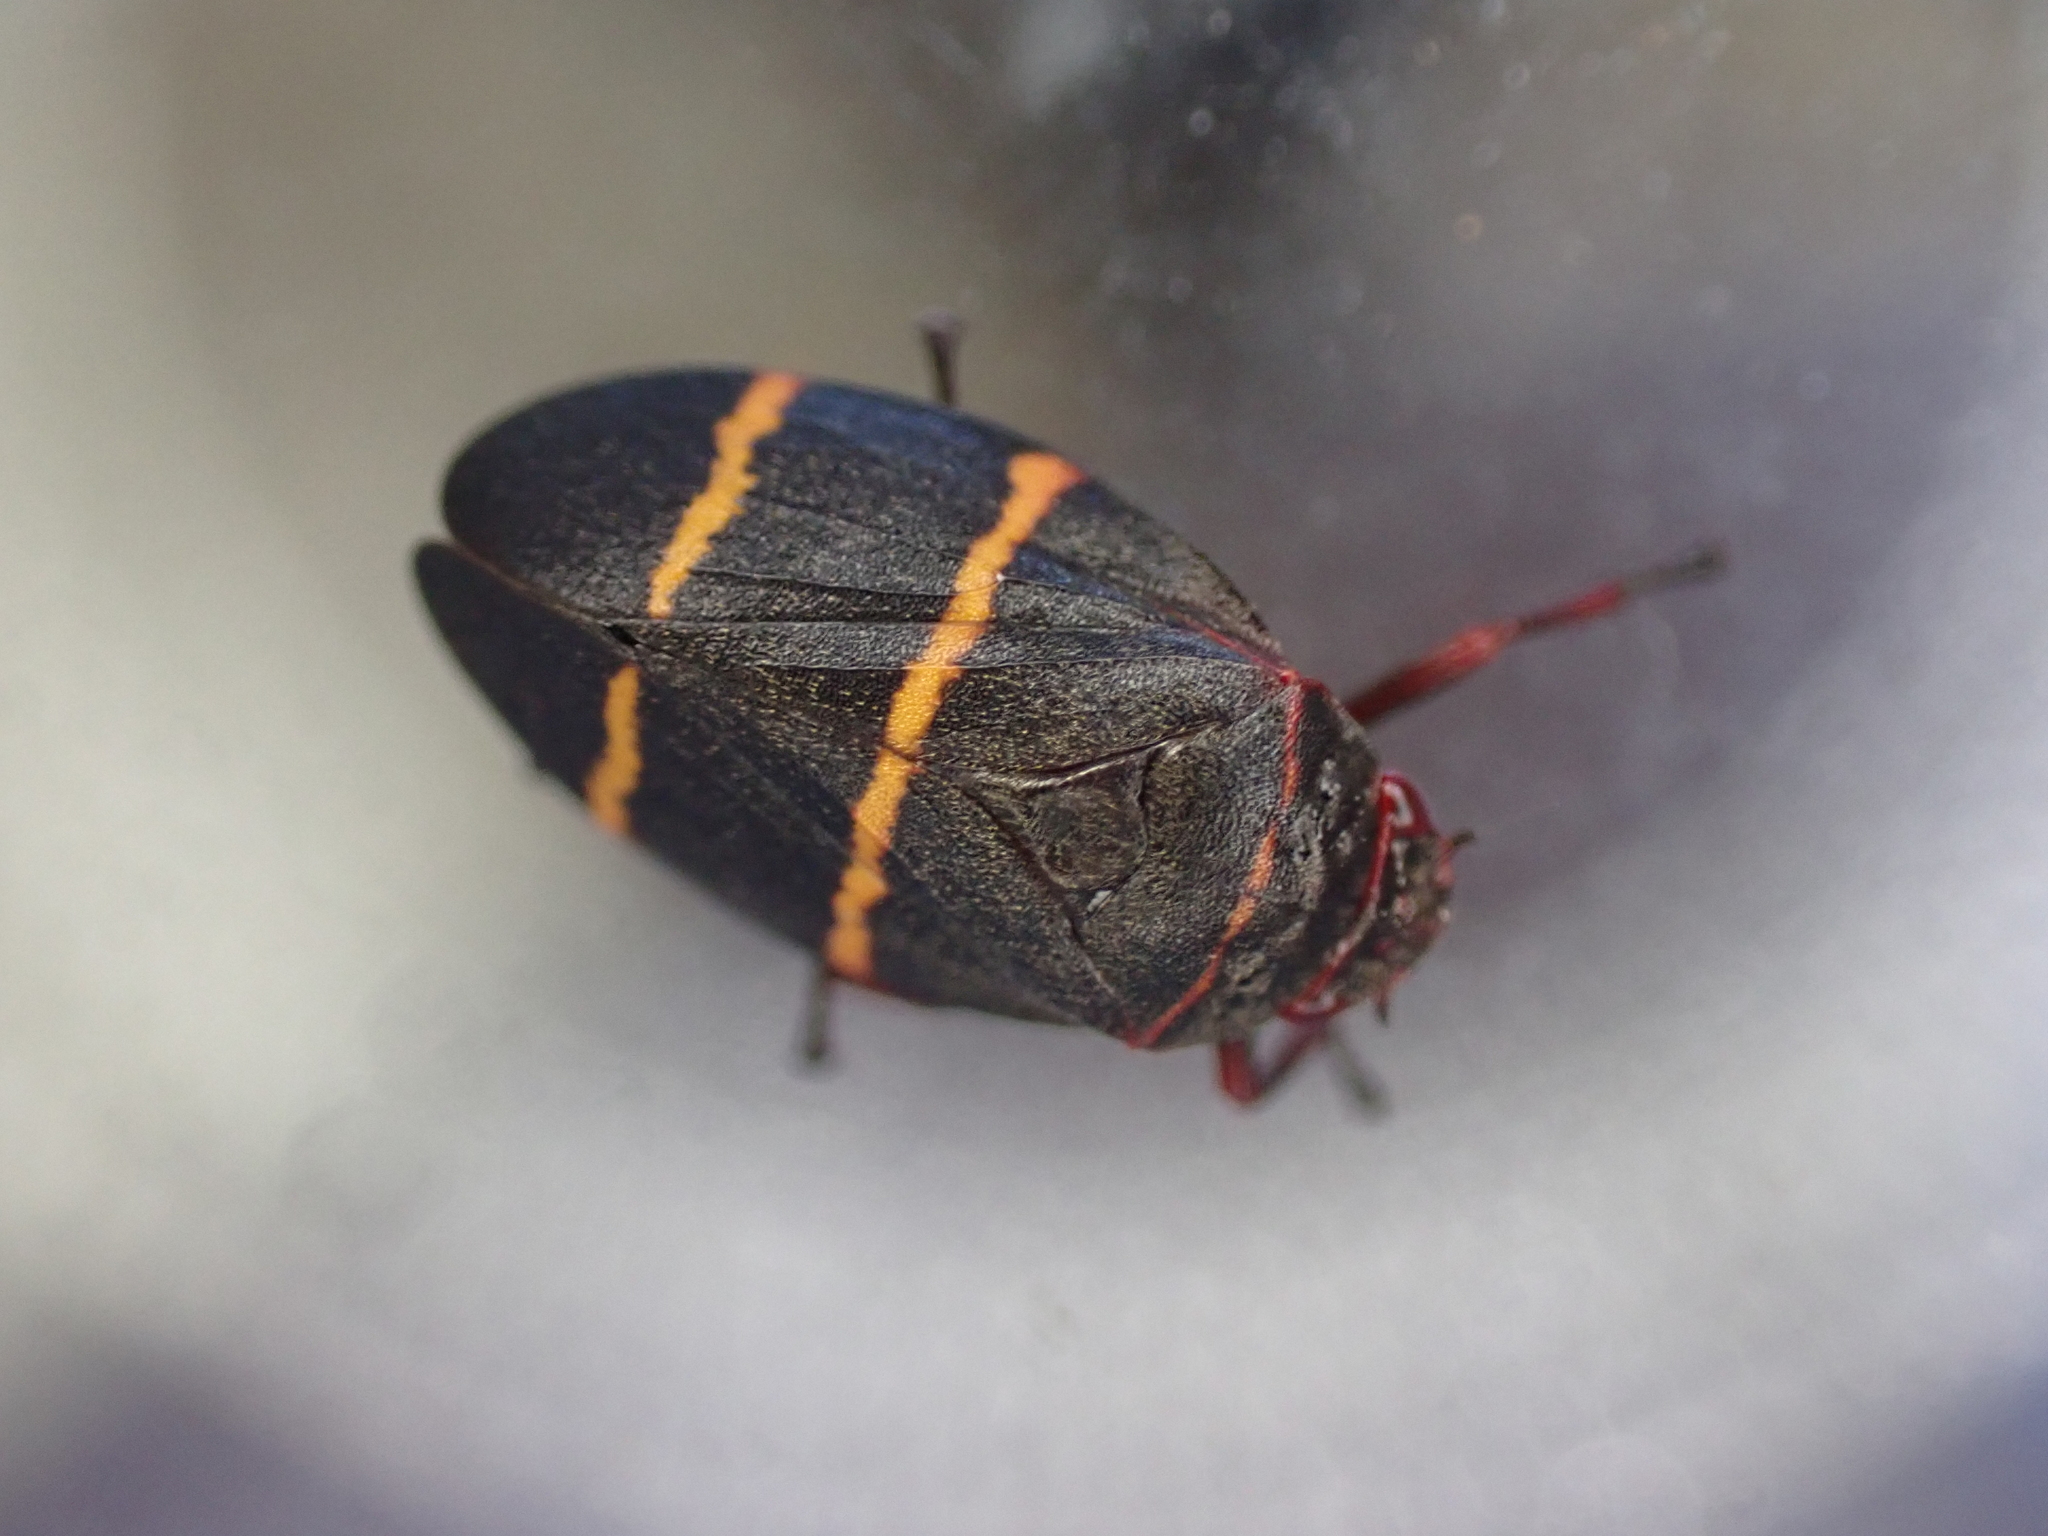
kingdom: Animalia
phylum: Arthropoda
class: Insecta
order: Hemiptera
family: Cercopidae
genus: Prosapia
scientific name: Prosapia bicincta
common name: Twolined spittlebug
